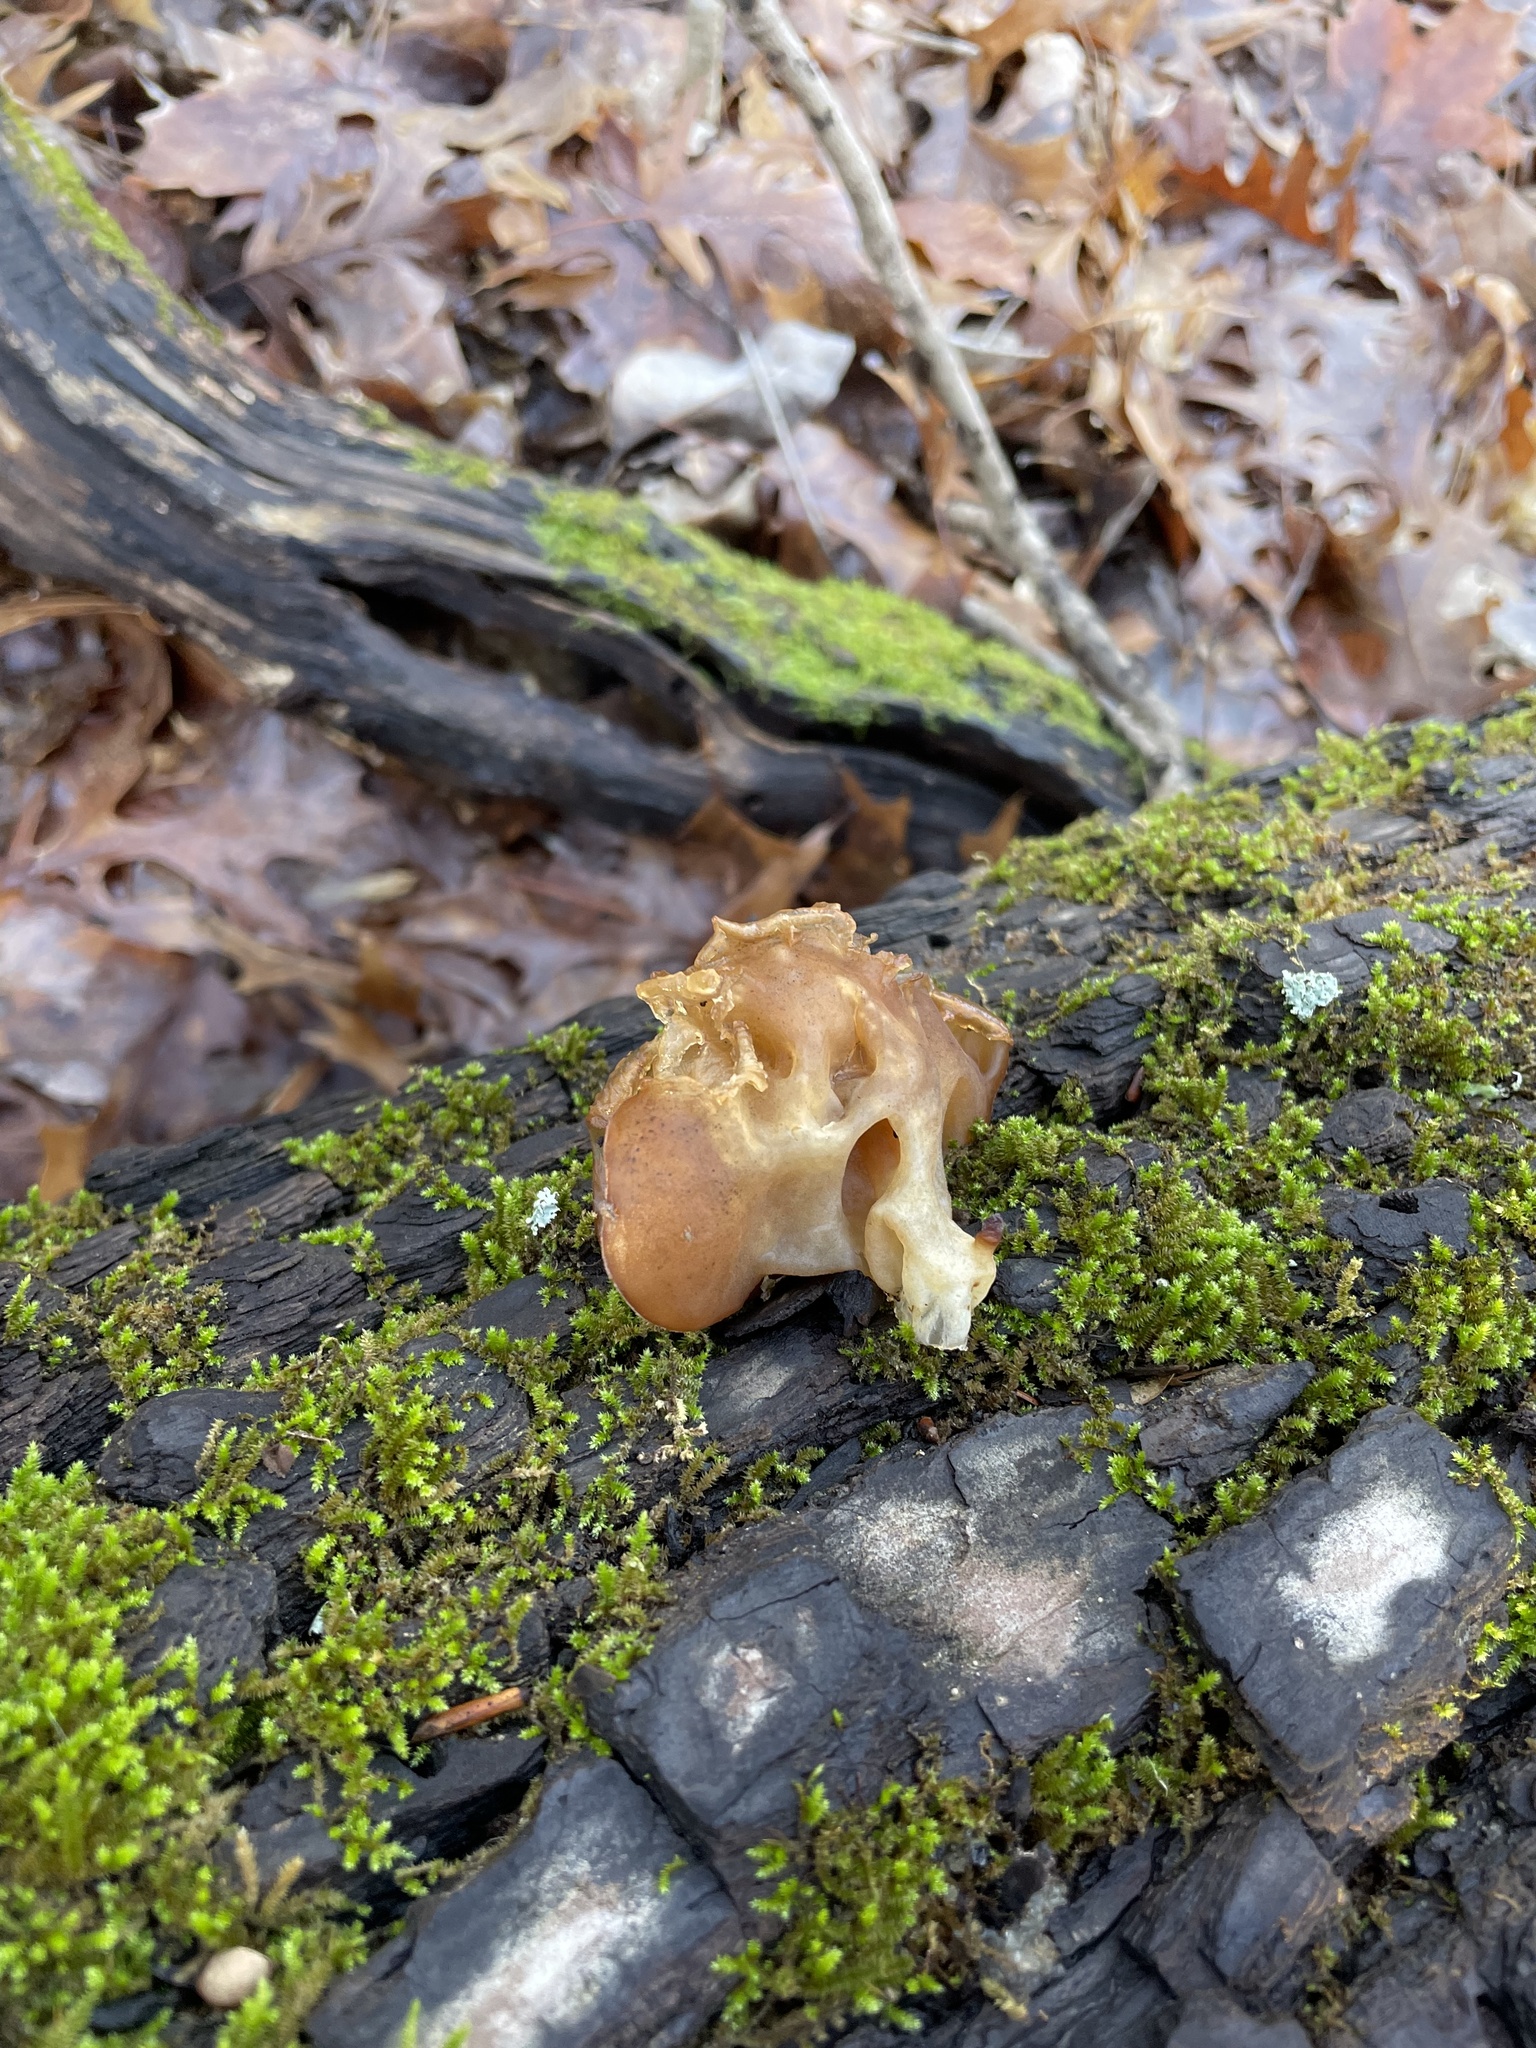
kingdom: Fungi
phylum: Basidiomycota
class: Agaricomycetes
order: Auriculariales
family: Auriculariaceae
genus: Auricularia
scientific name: Auricularia americana
